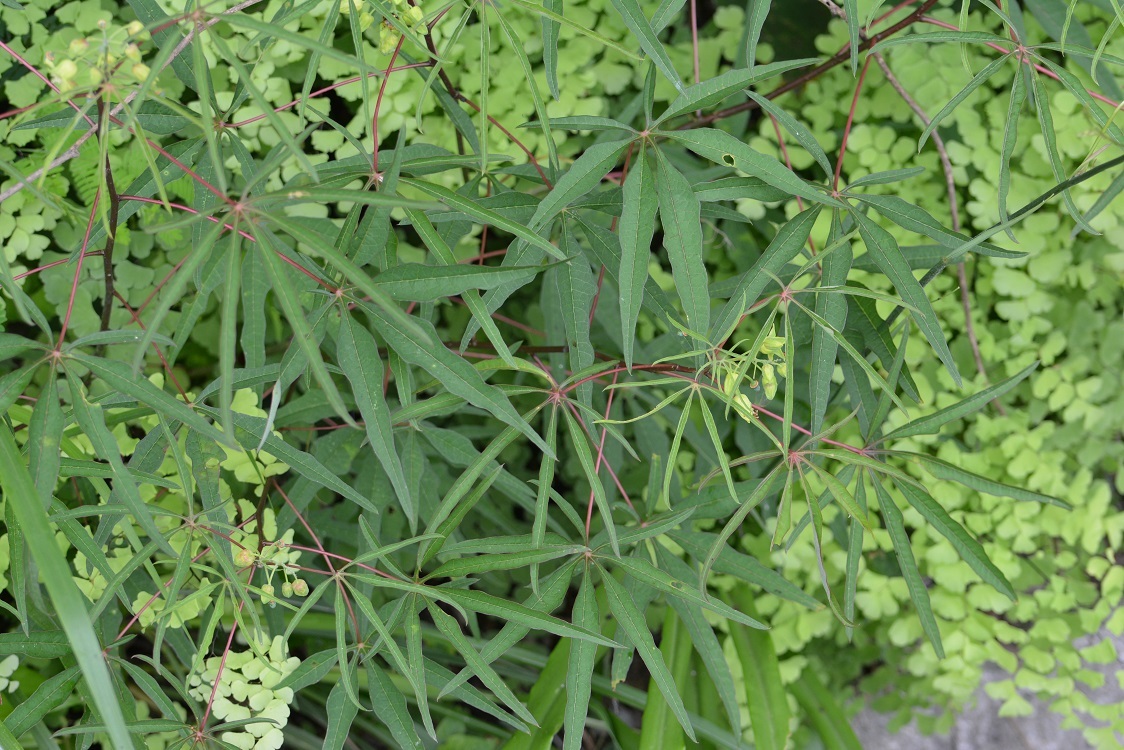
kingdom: Plantae
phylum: Tracheophyta
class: Magnoliopsida
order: Malpighiales
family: Euphorbiaceae
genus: Manihot
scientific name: Manihot rhomboidea
